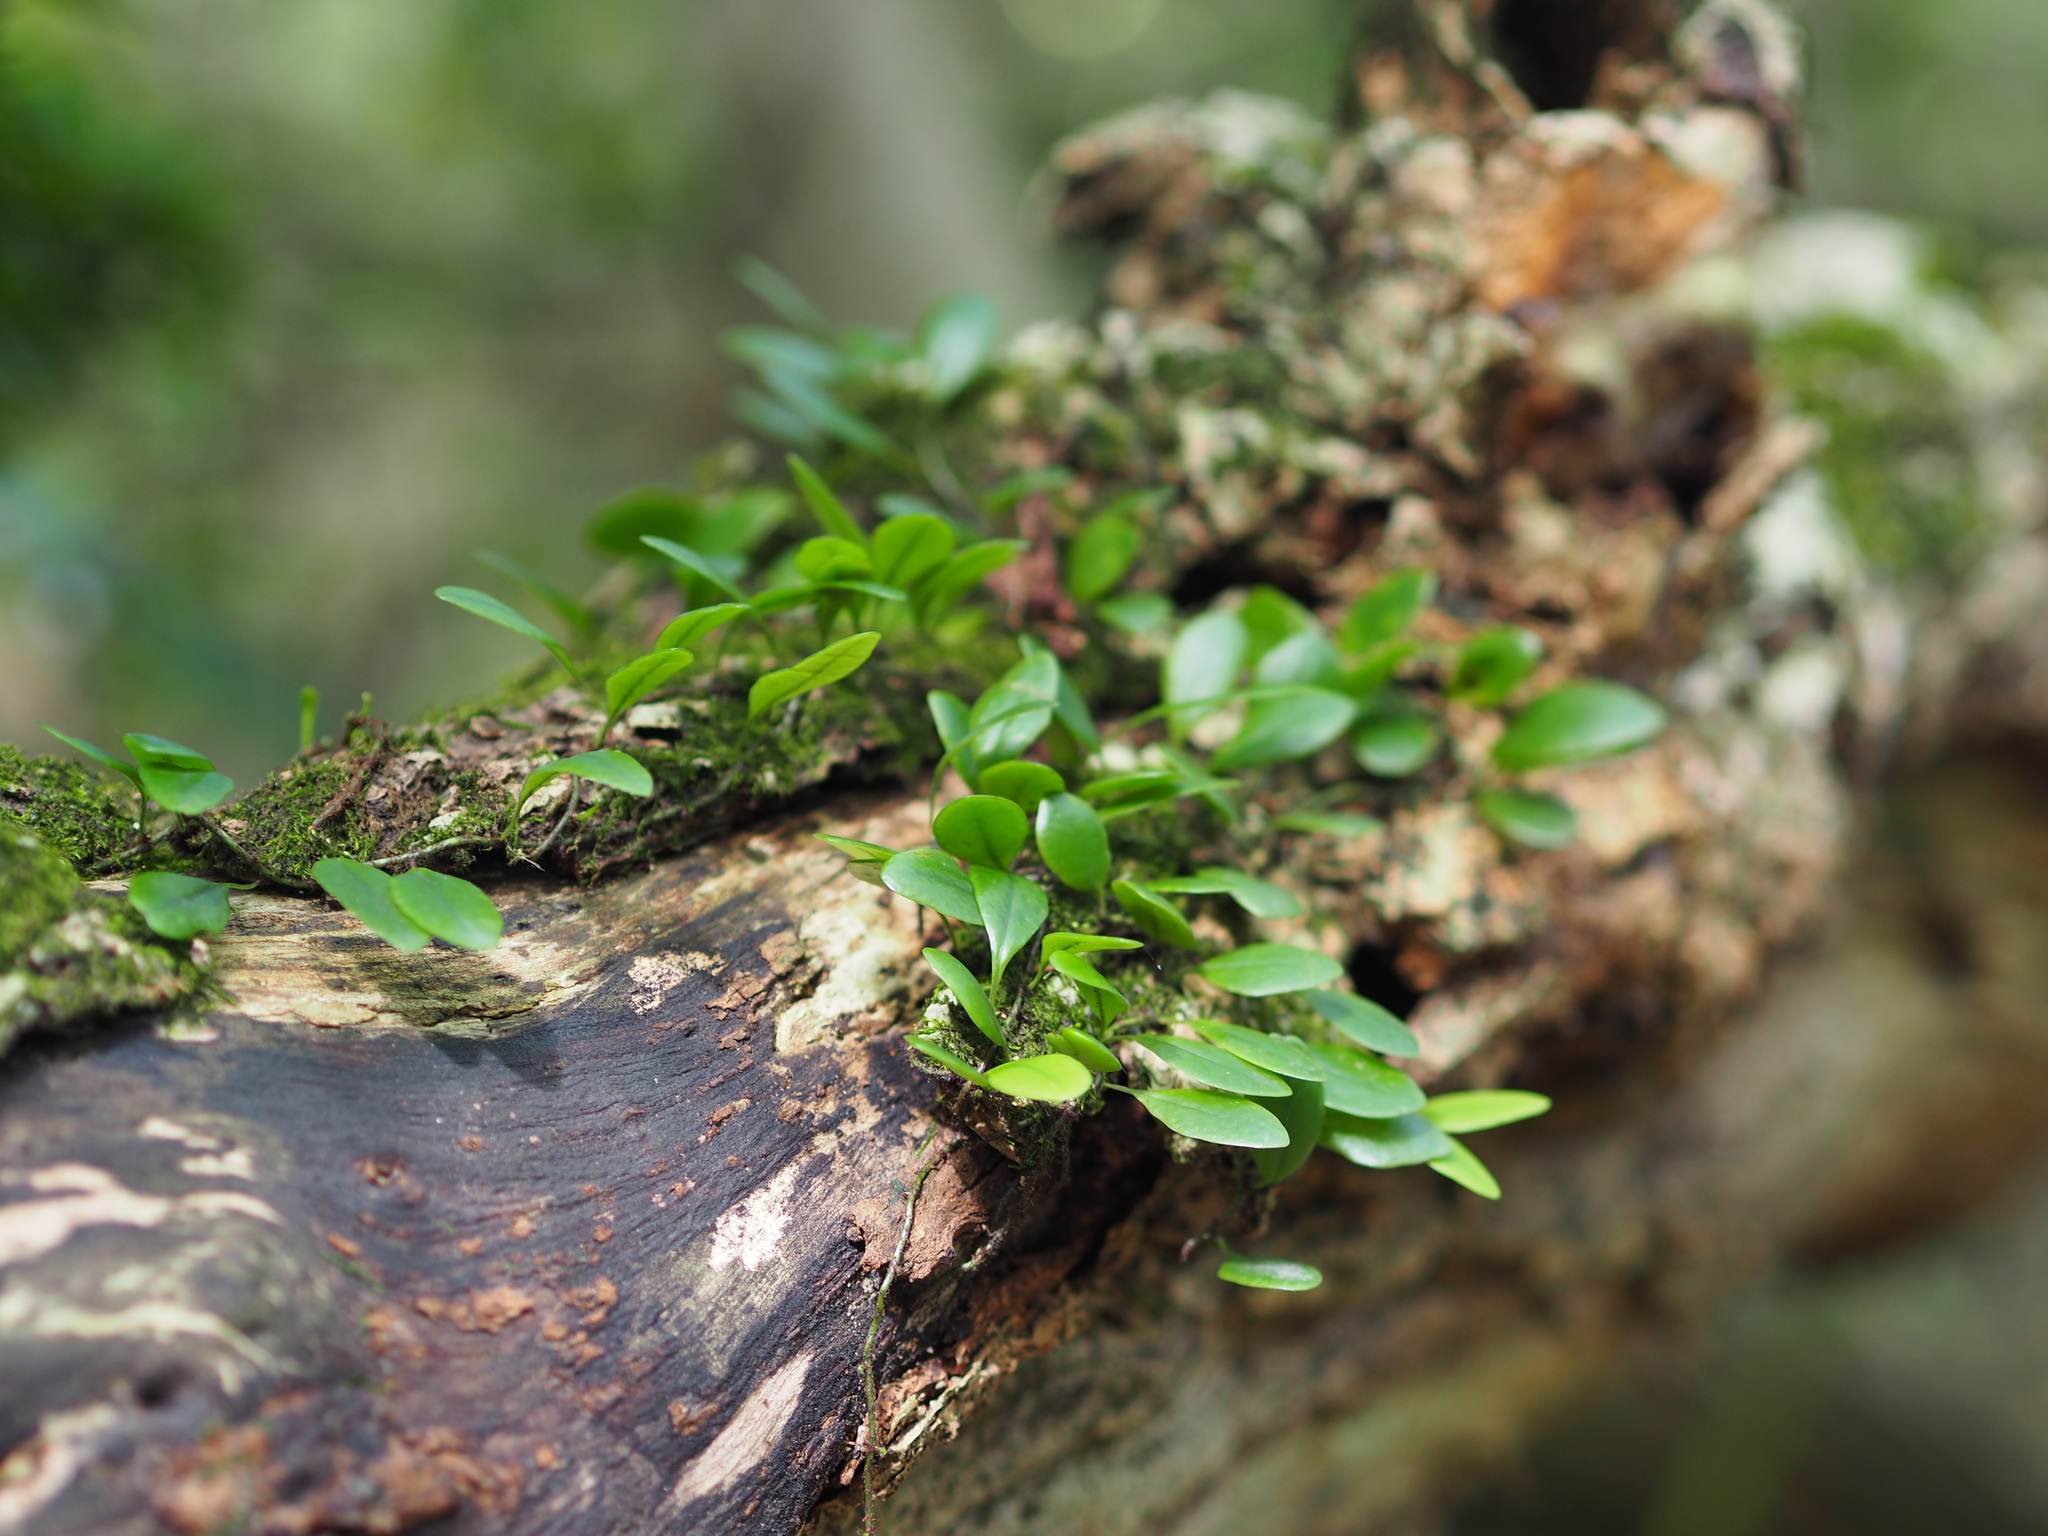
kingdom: Plantae
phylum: Tracheophyta
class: Polypodiopsida
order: Polypodiales
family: Polypodiaceae
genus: Lepisorus
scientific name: Lepisorus microphyllus
